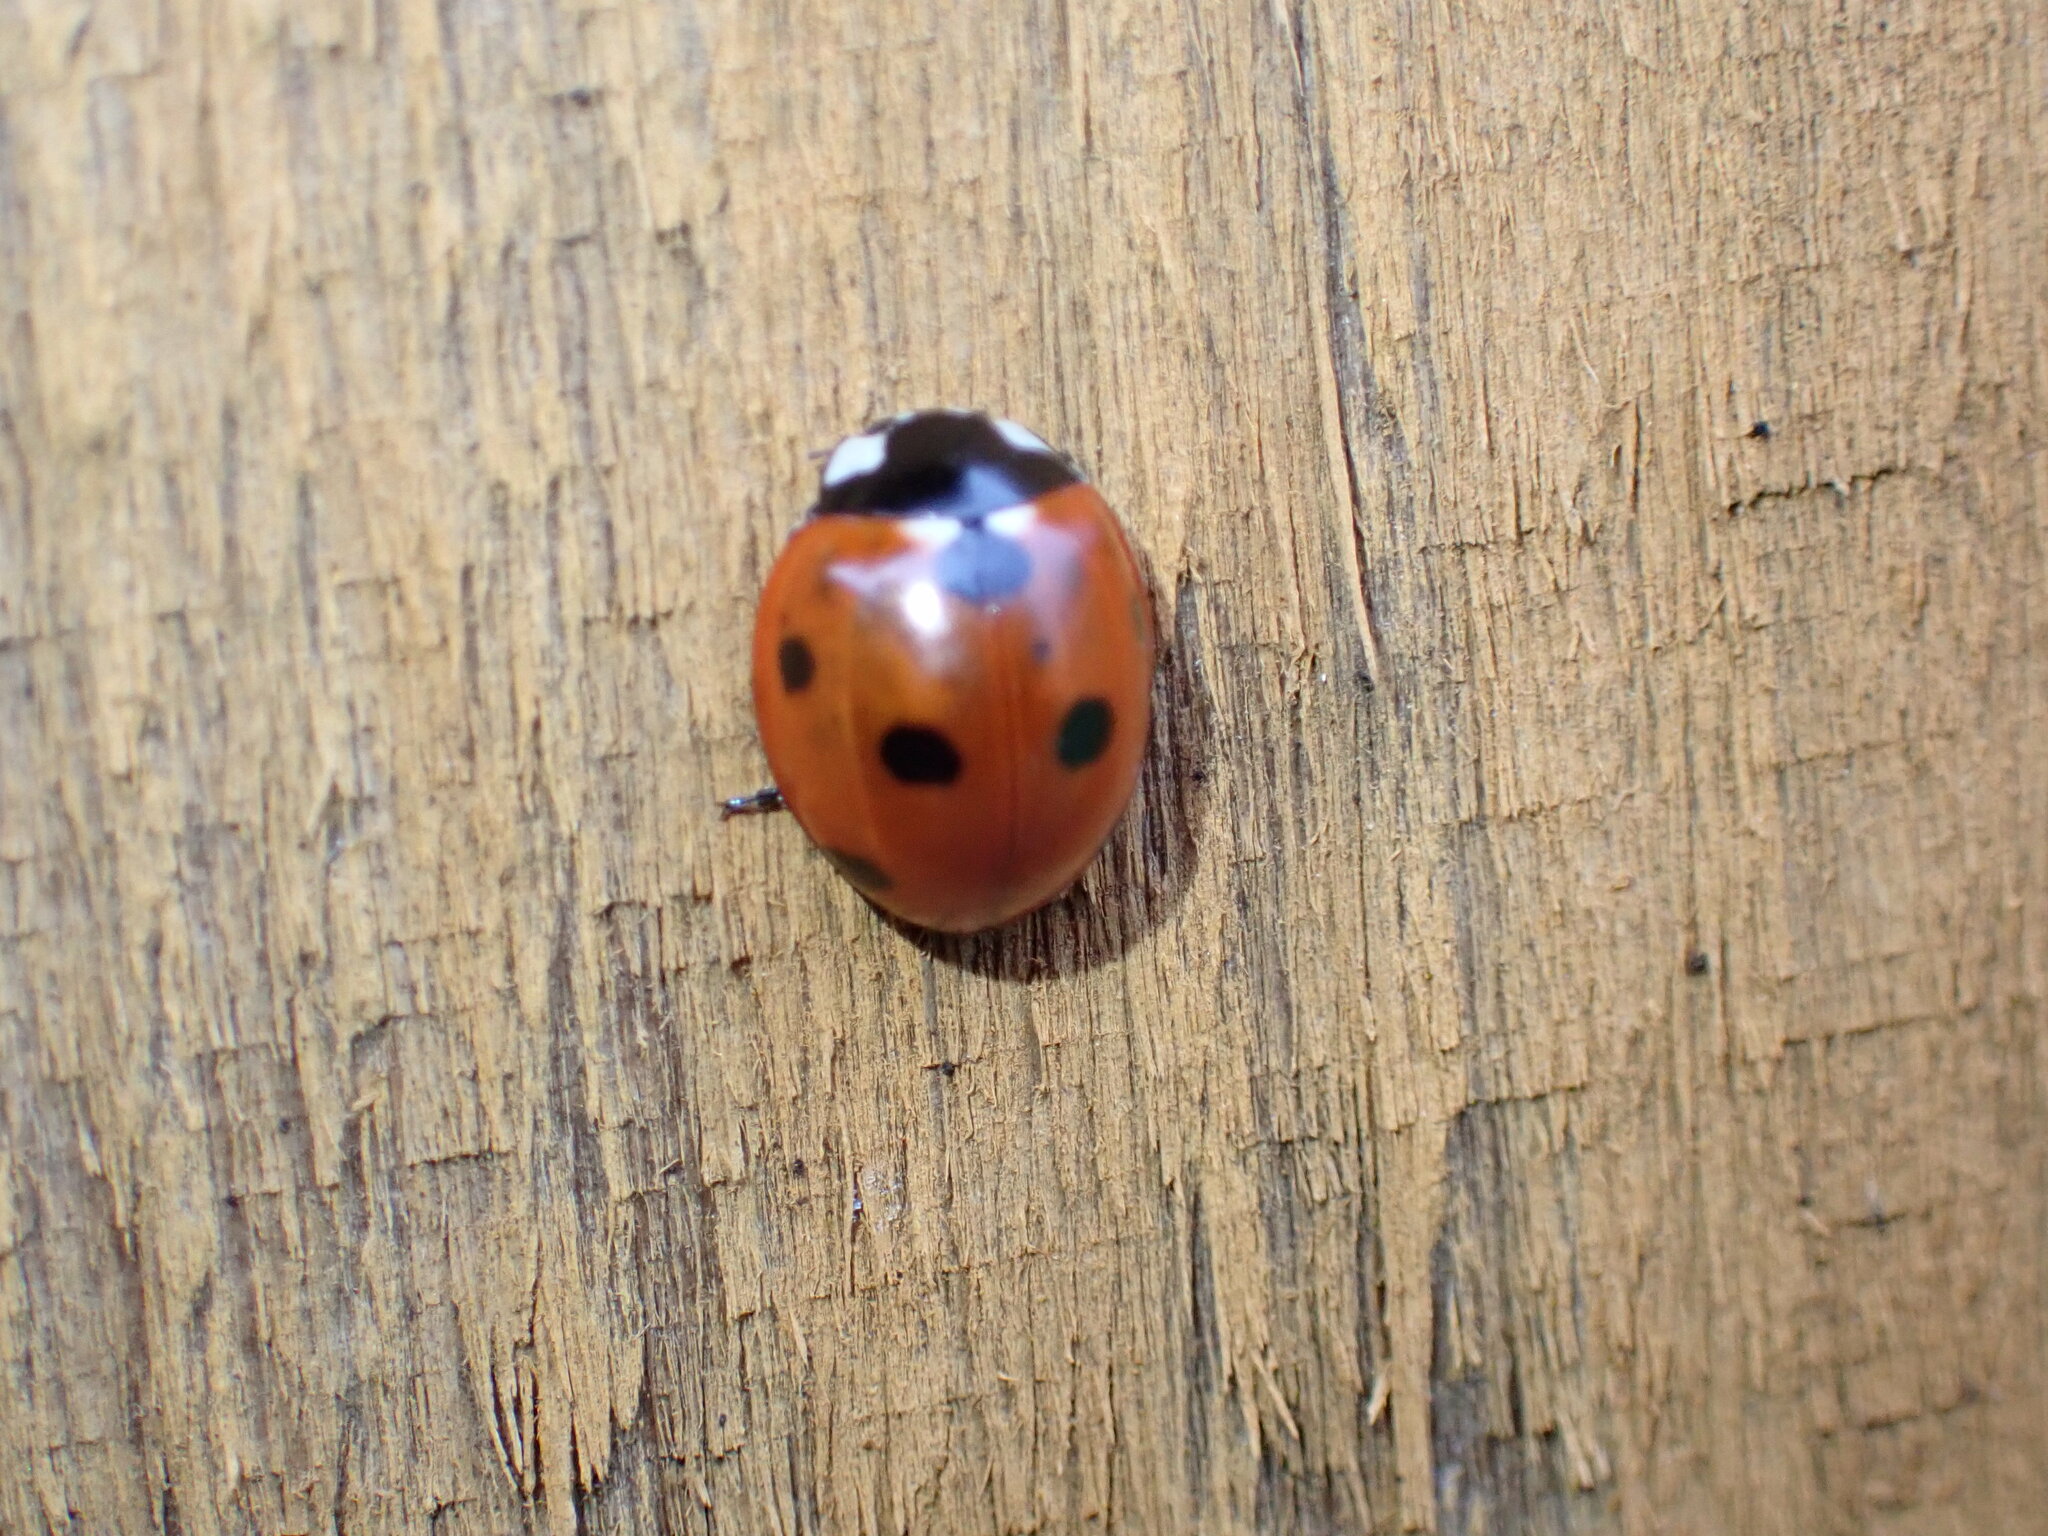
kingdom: Animalia
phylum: Arthropoda
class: Insecta
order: Coleoptera
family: Coccinellidae
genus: Coccinella
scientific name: Coccinella septempunctata
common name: Sevenspotted lady beetle
